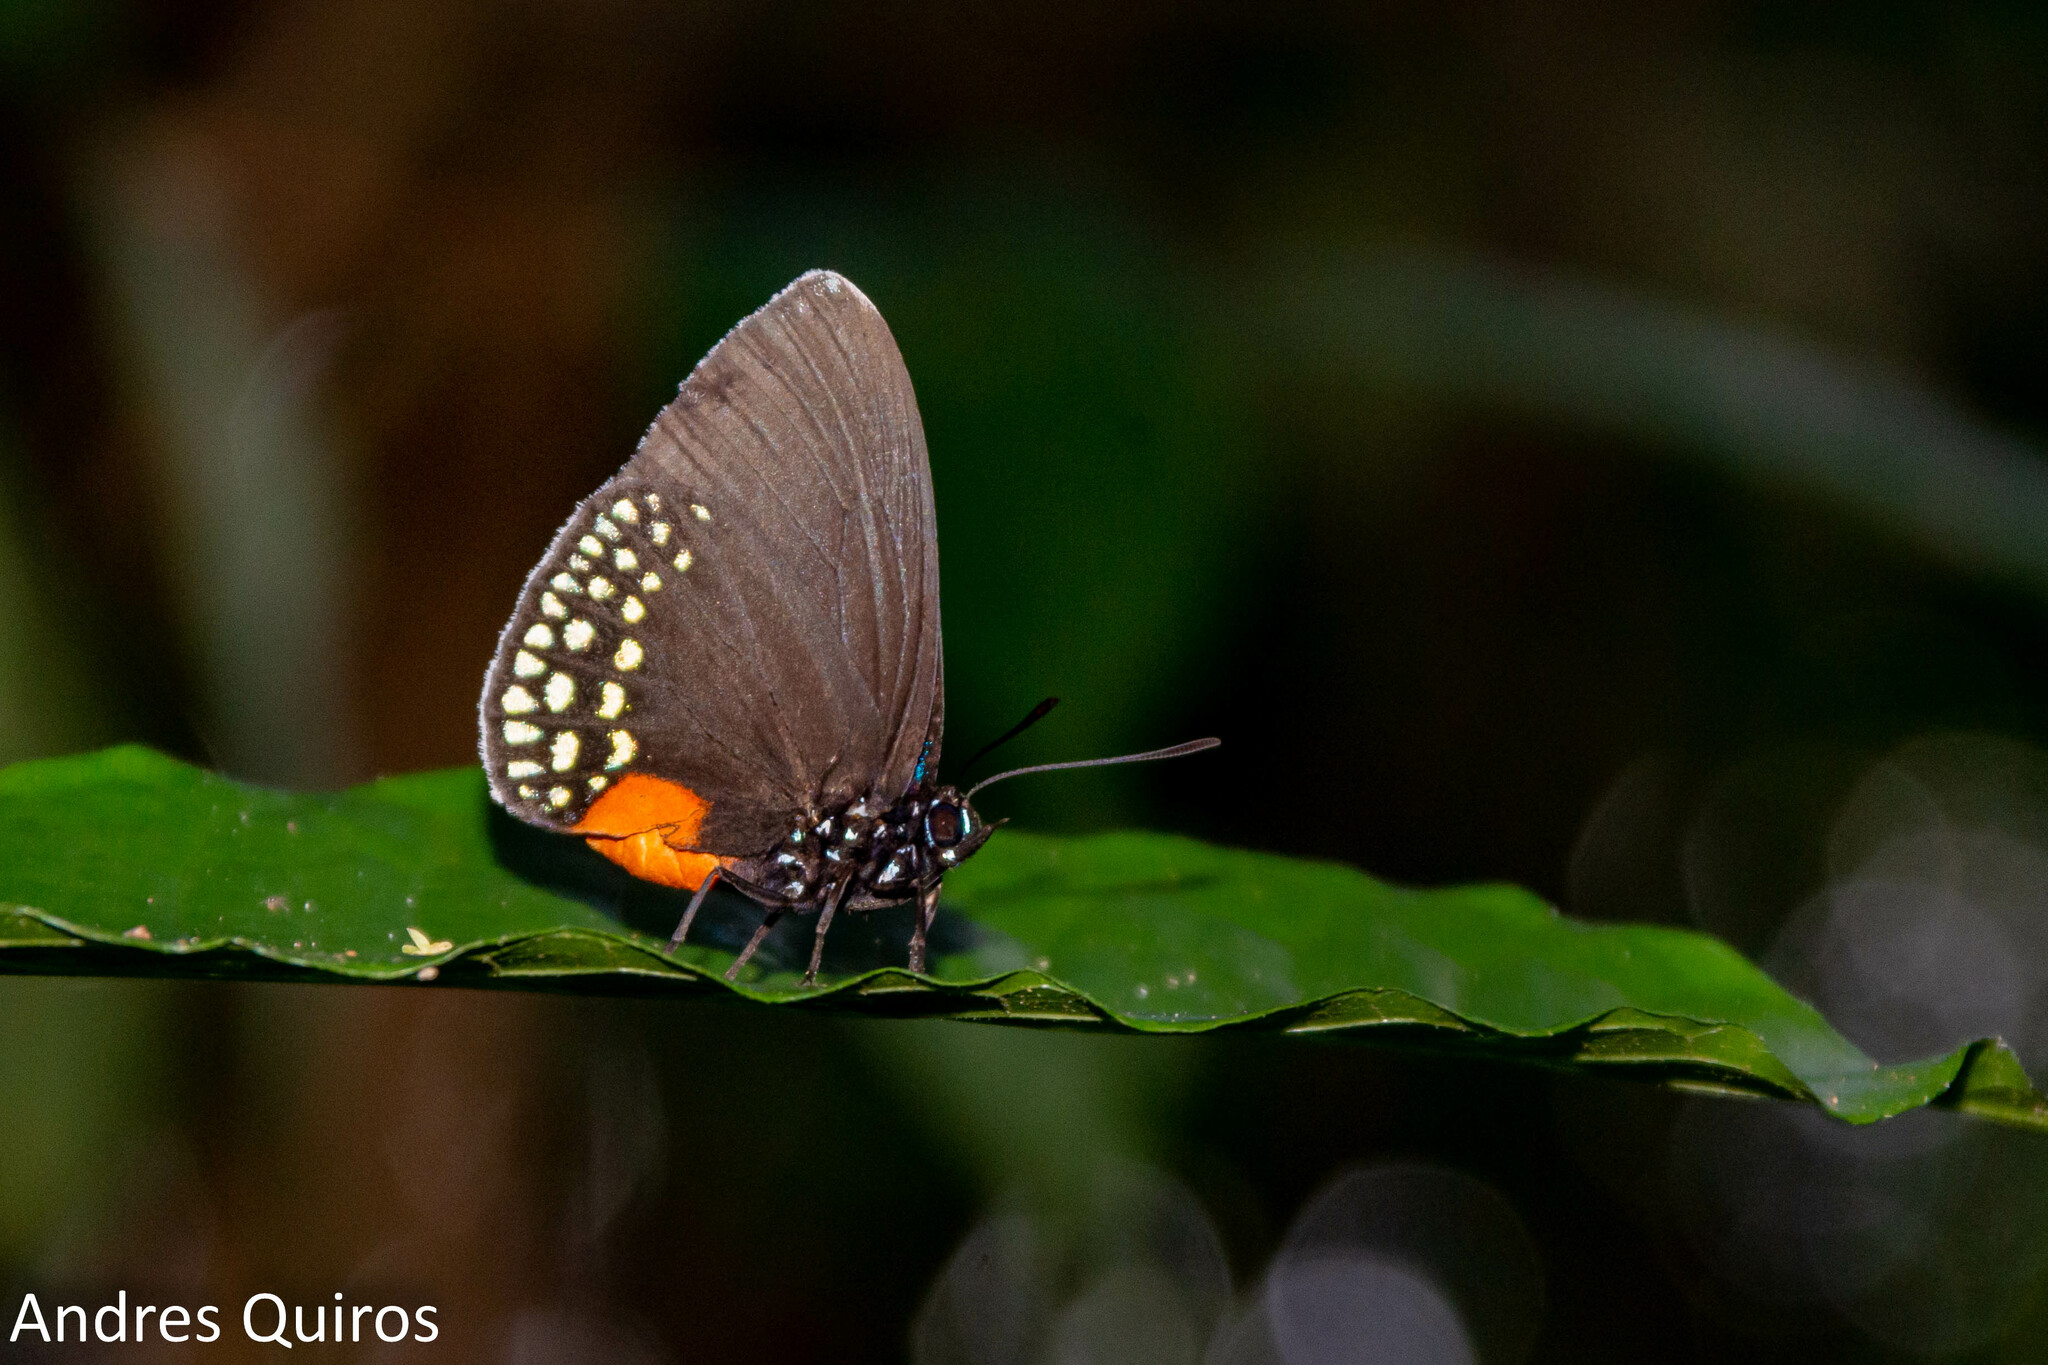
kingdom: Animalia
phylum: Arthropoda
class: Insecta
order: Lepidoptera
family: Lycaenidae
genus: Eumaeus
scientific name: Eumaeus godartii
